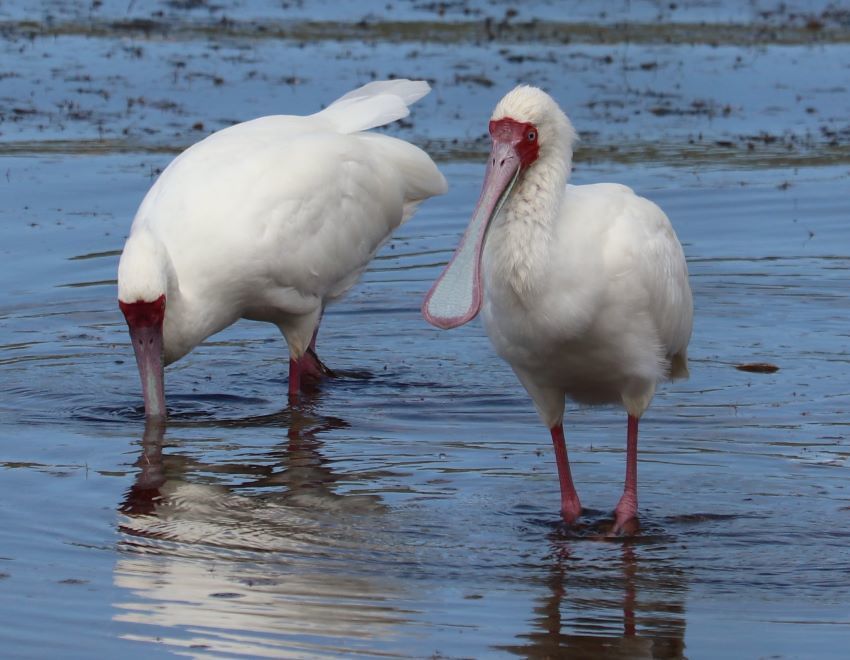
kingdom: Animalia
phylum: Chordata
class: Aves
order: Pelecaniformes
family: Threskiornithidae
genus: Platalea
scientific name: Platalea alba
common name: African spoonbill
